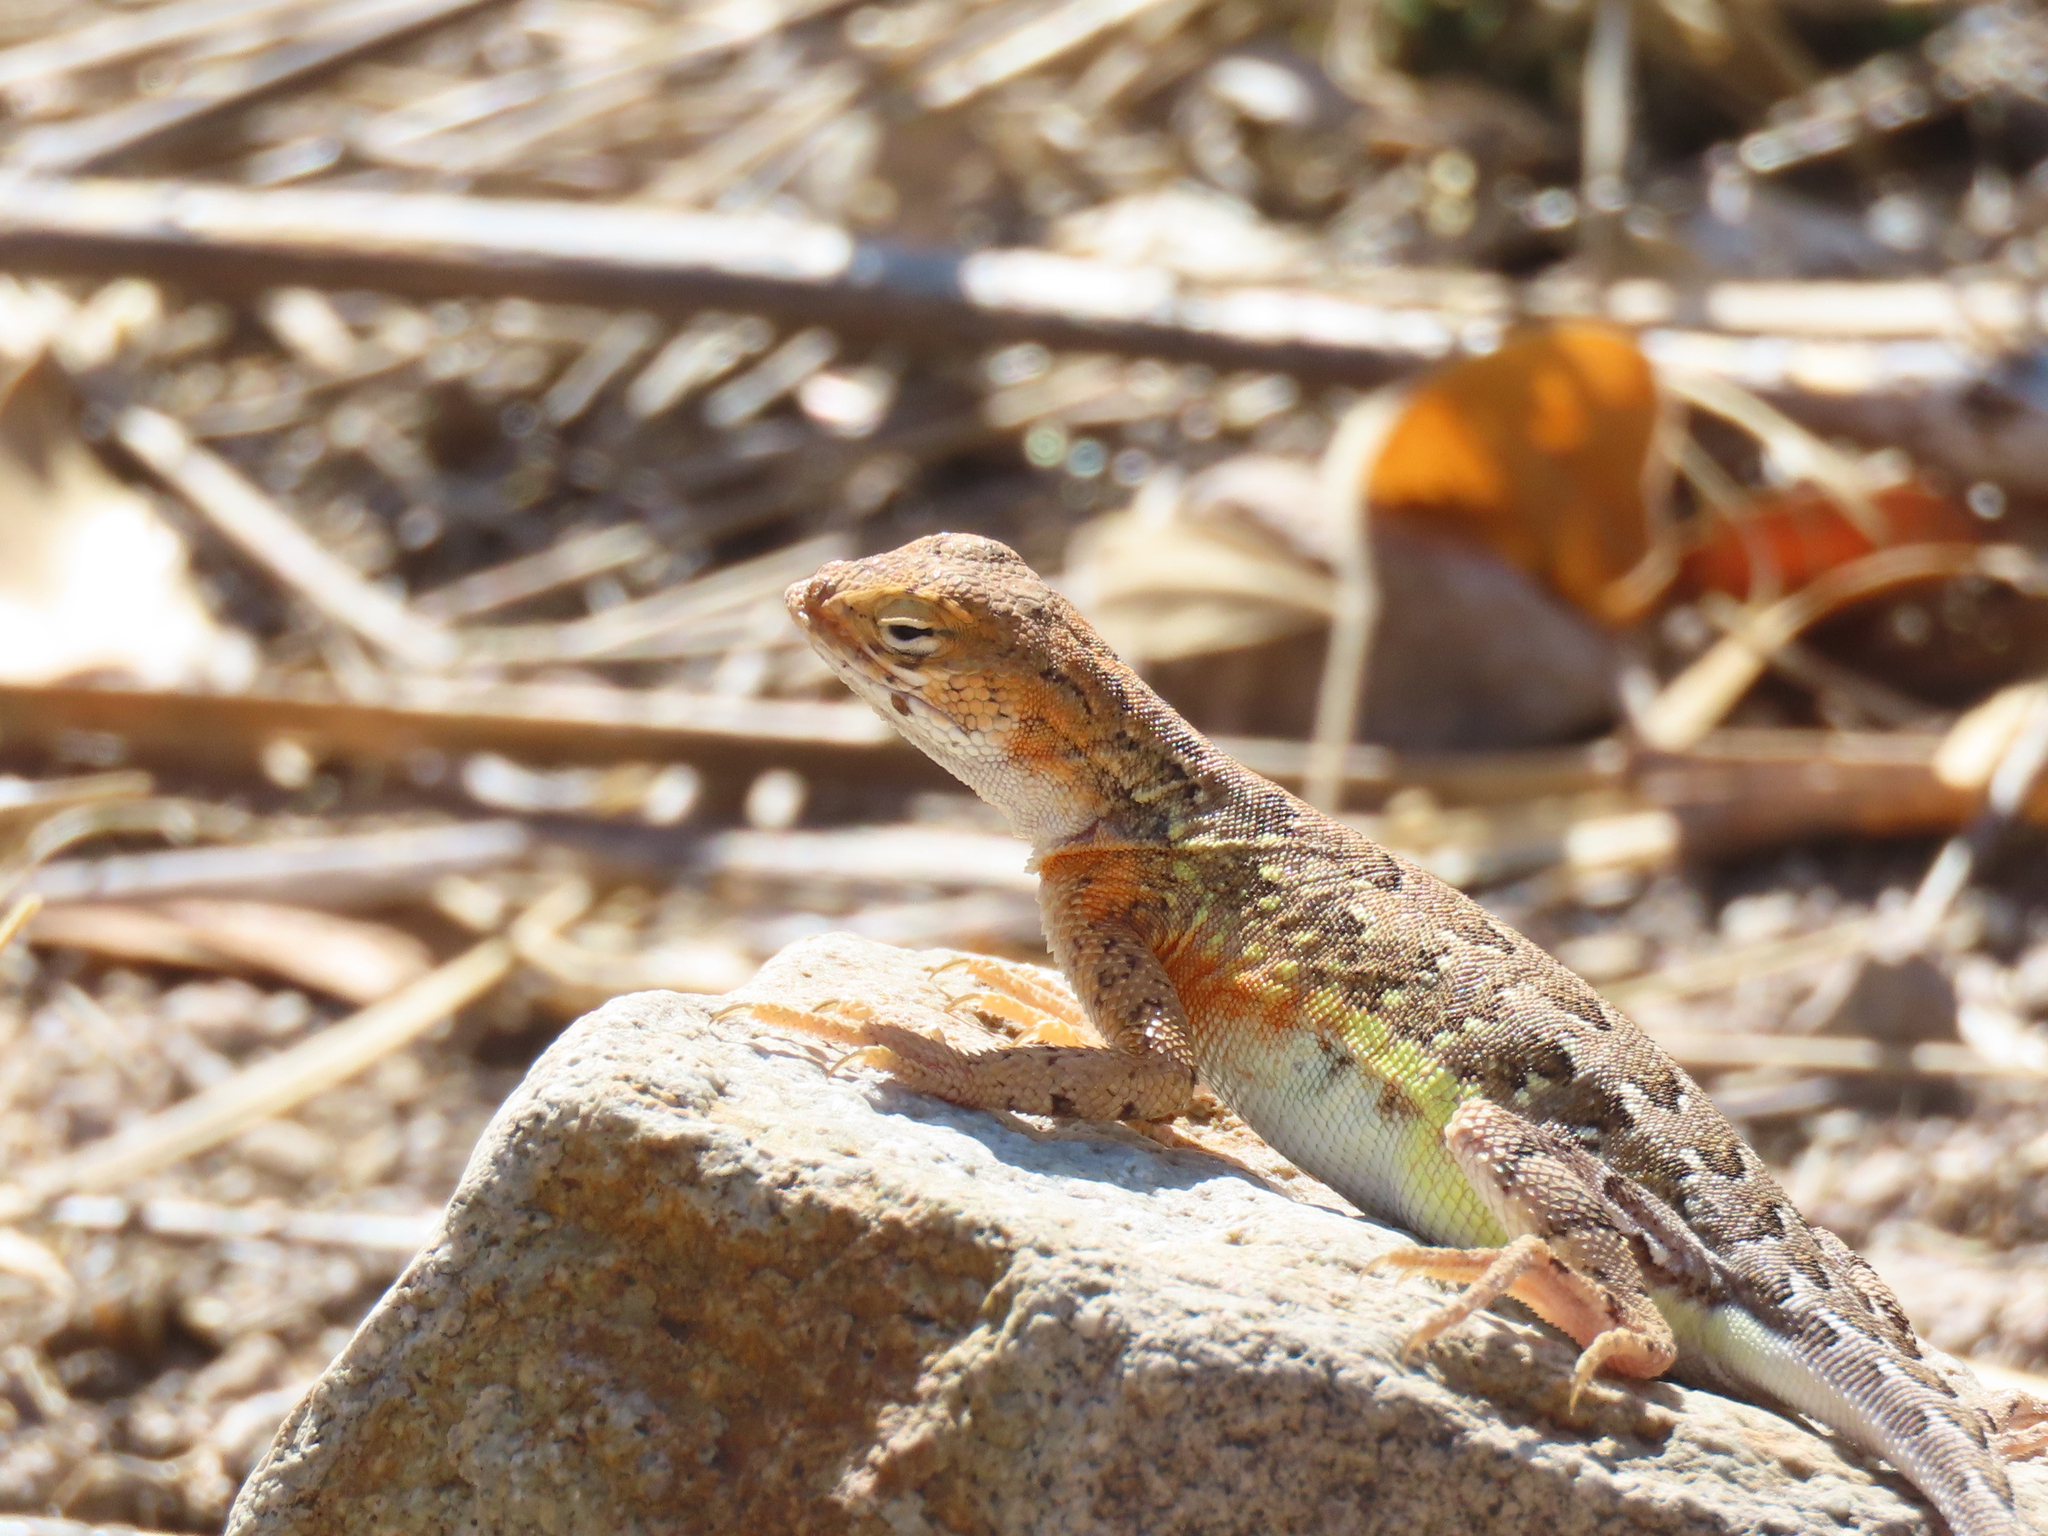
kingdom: Animalia
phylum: Chordata
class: Squamata
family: Phrynosomatidae
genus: Holbrookia
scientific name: Holbrookia elegans
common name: Elegant earless lizard
